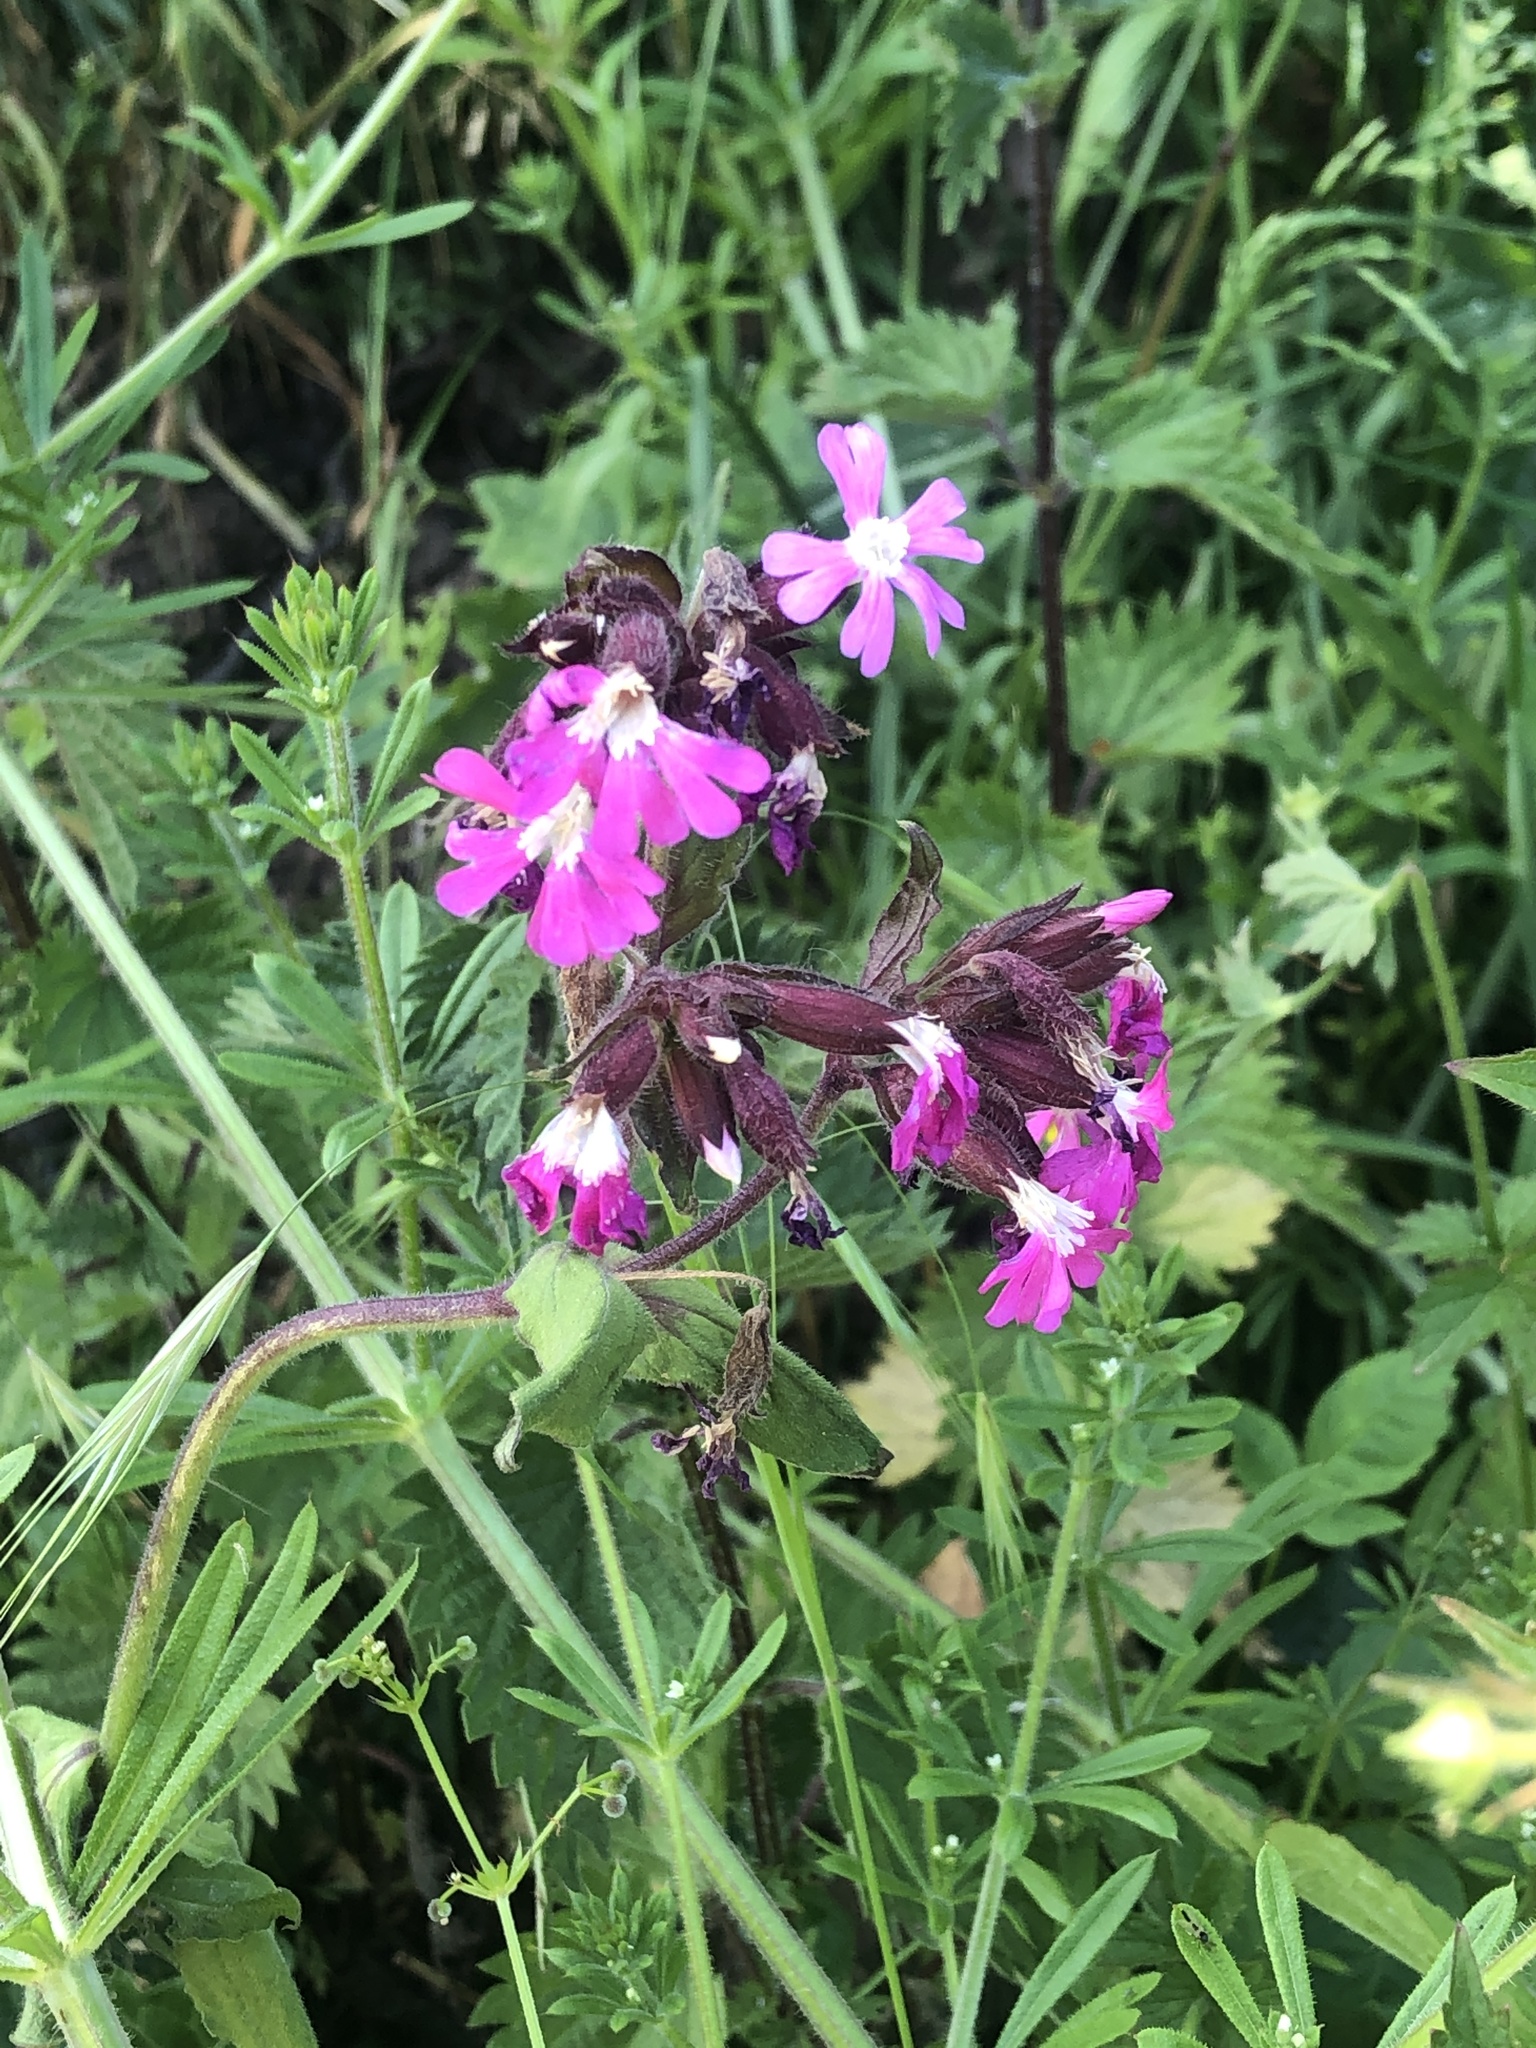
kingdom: Plantae
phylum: Tracheophyta
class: Magnoliopsida
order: Caryophyllales
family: Caryophyllaceae
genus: Silene
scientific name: Silene dioica
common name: Red campion
